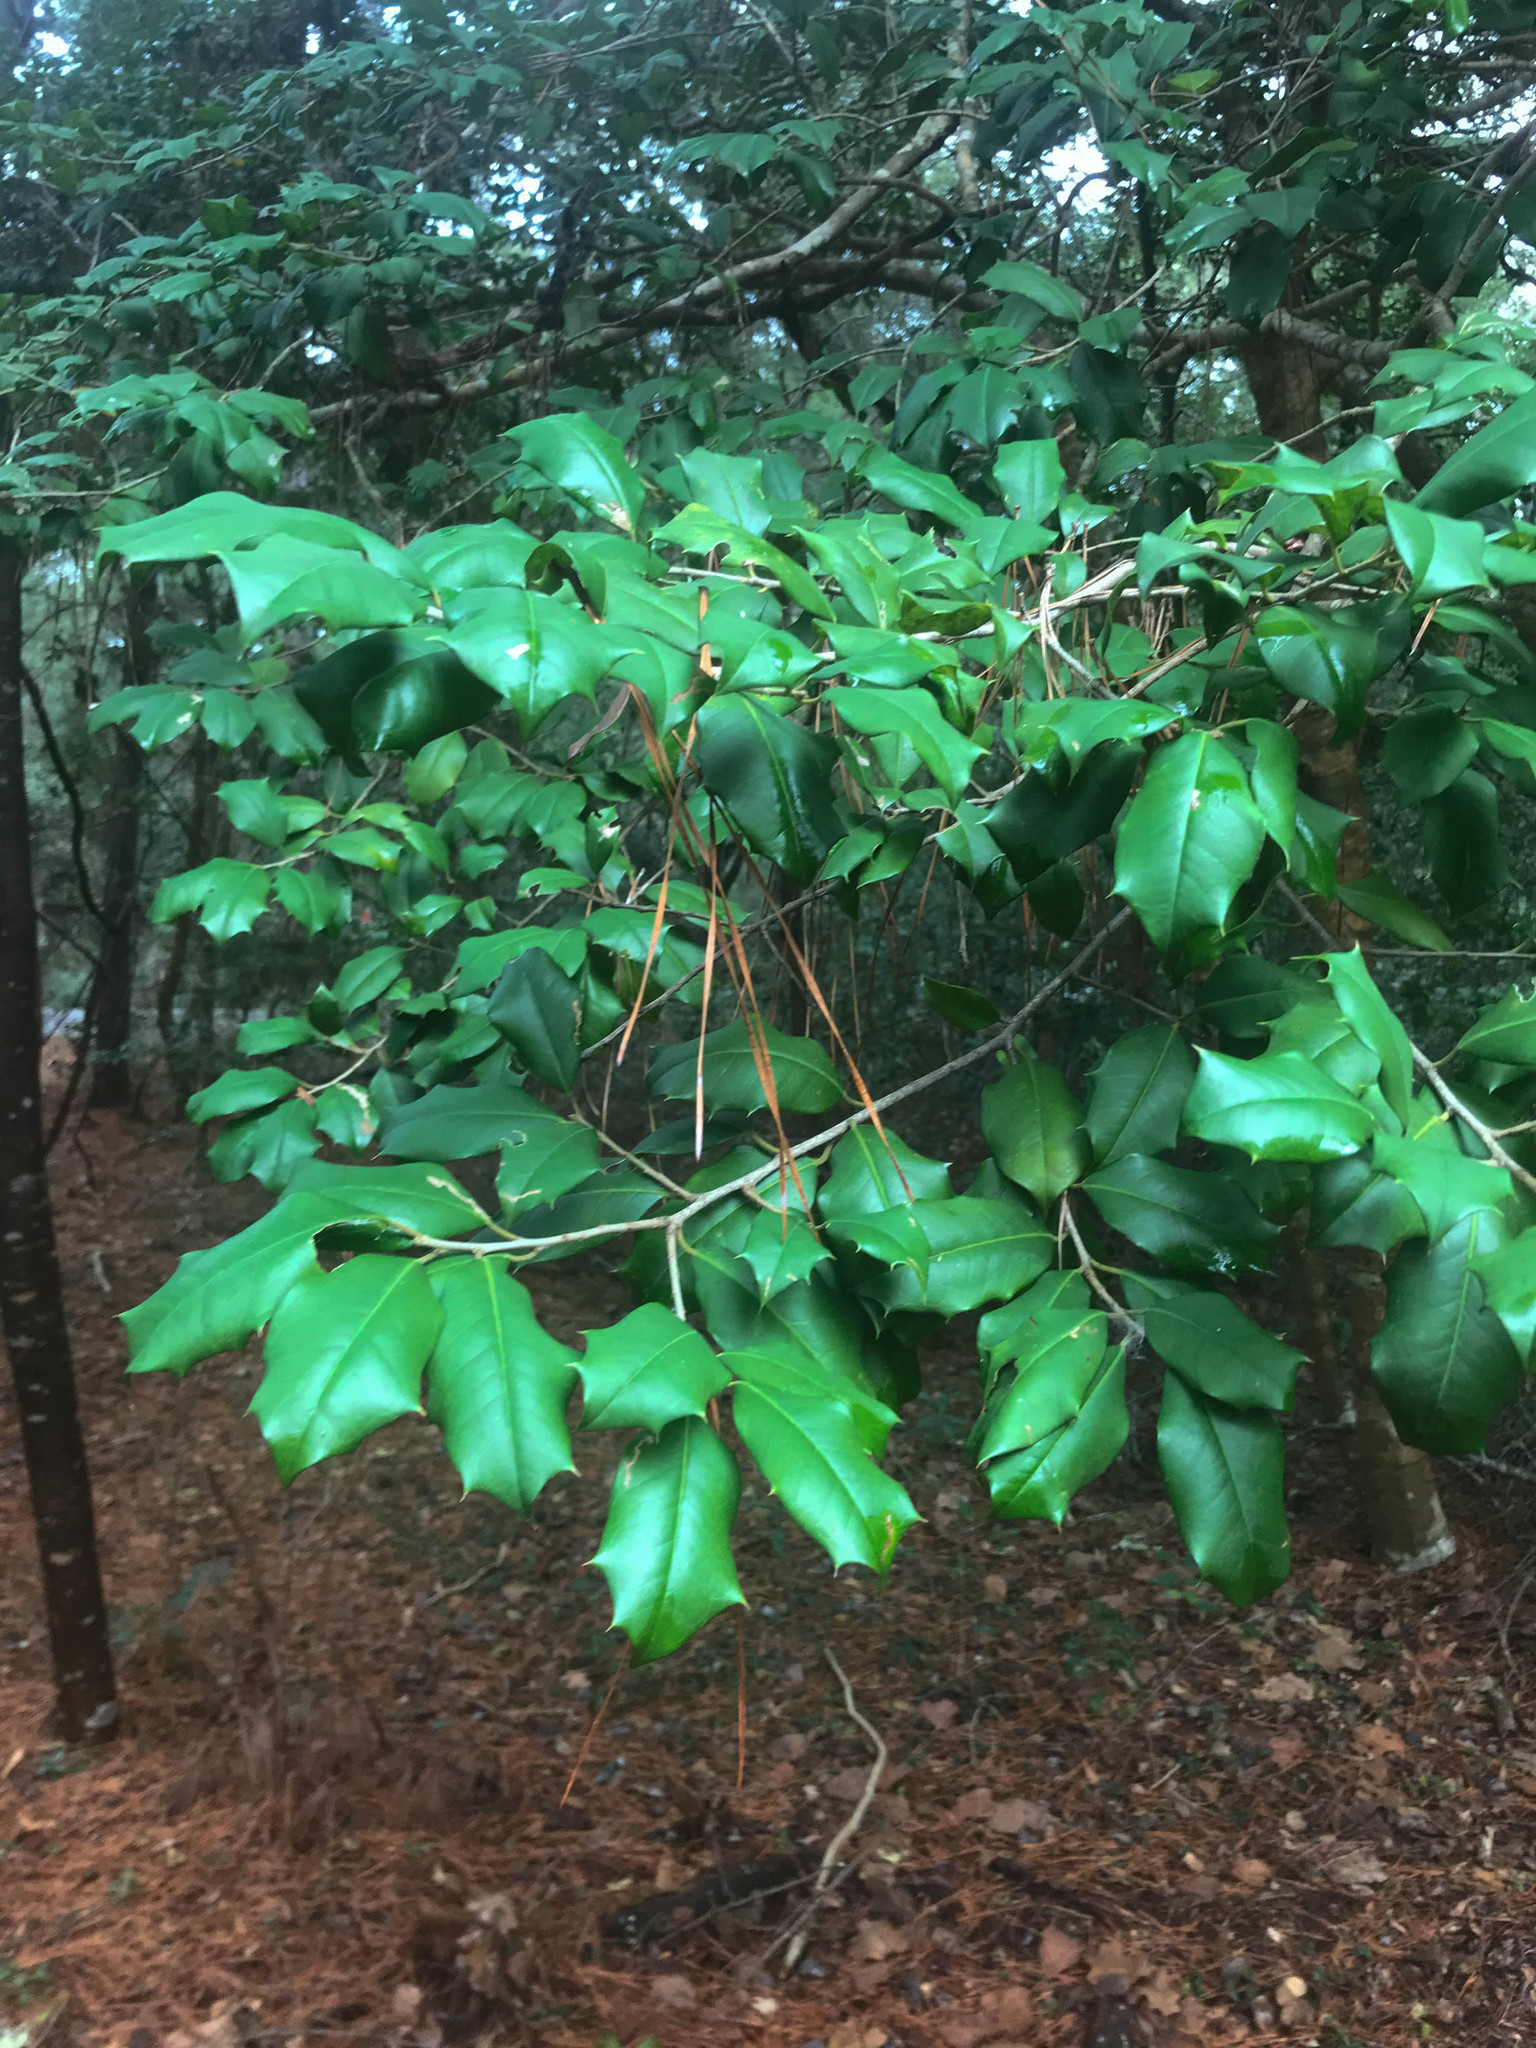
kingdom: Plantae
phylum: Tracheophyta
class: Magnoliopsida
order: Aquifoliales
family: Aquifoliaceae
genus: Ilex
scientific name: Ilex opaca
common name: American holly
